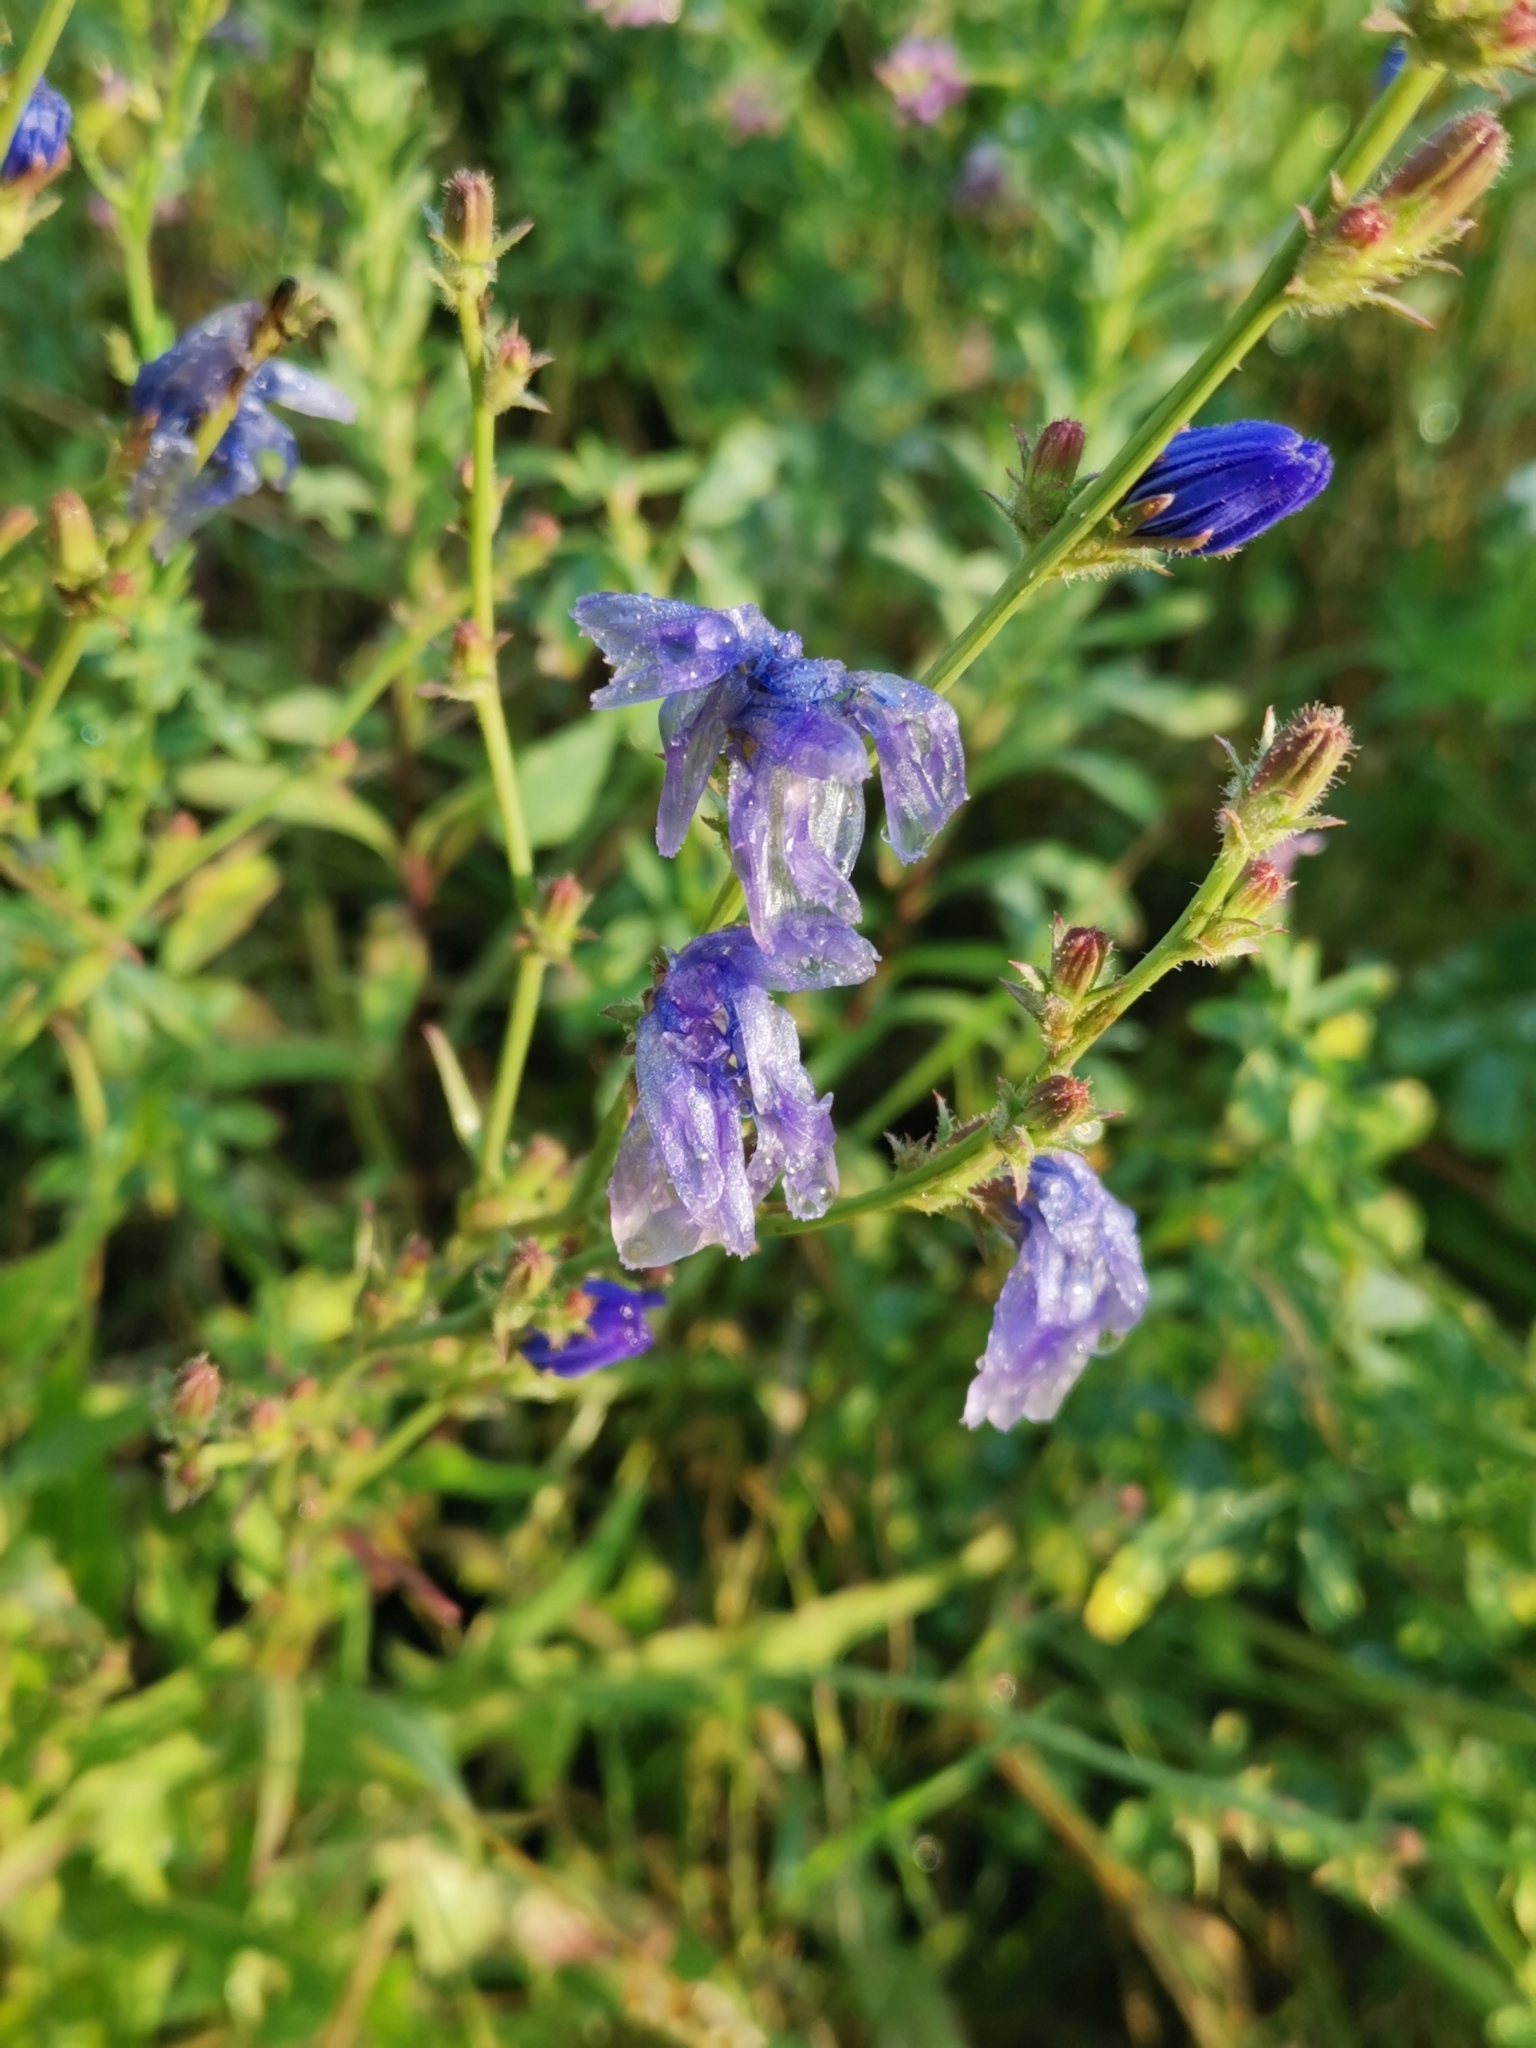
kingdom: Plantae
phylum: Tracheophyta
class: Magnoliopsida
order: Asterales
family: Asteraceae
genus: Cichorium
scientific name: Cichorium intybus
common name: Chicory
